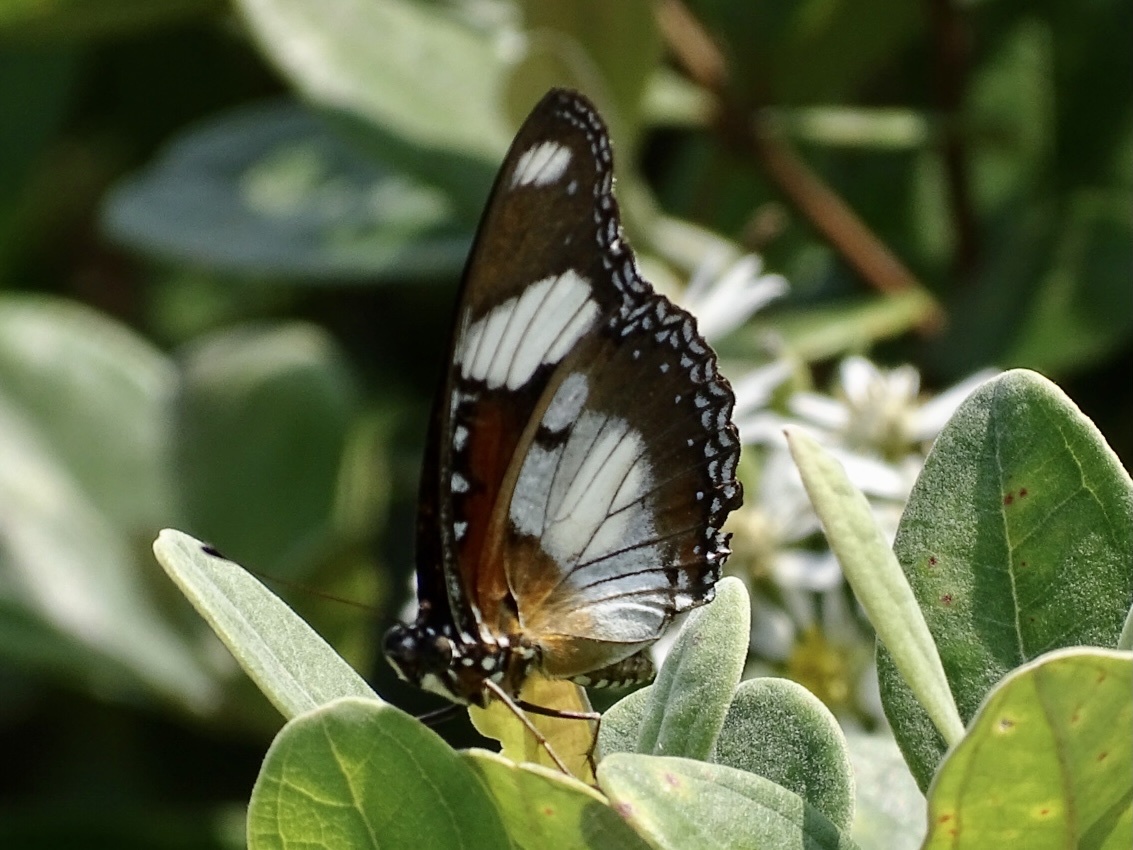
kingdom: Animalia
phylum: Arthropoda
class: Insecta
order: Lepidoptera
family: Nymphalidae
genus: Hypolimnas
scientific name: Hypolimnas misippus
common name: False plain tiger
